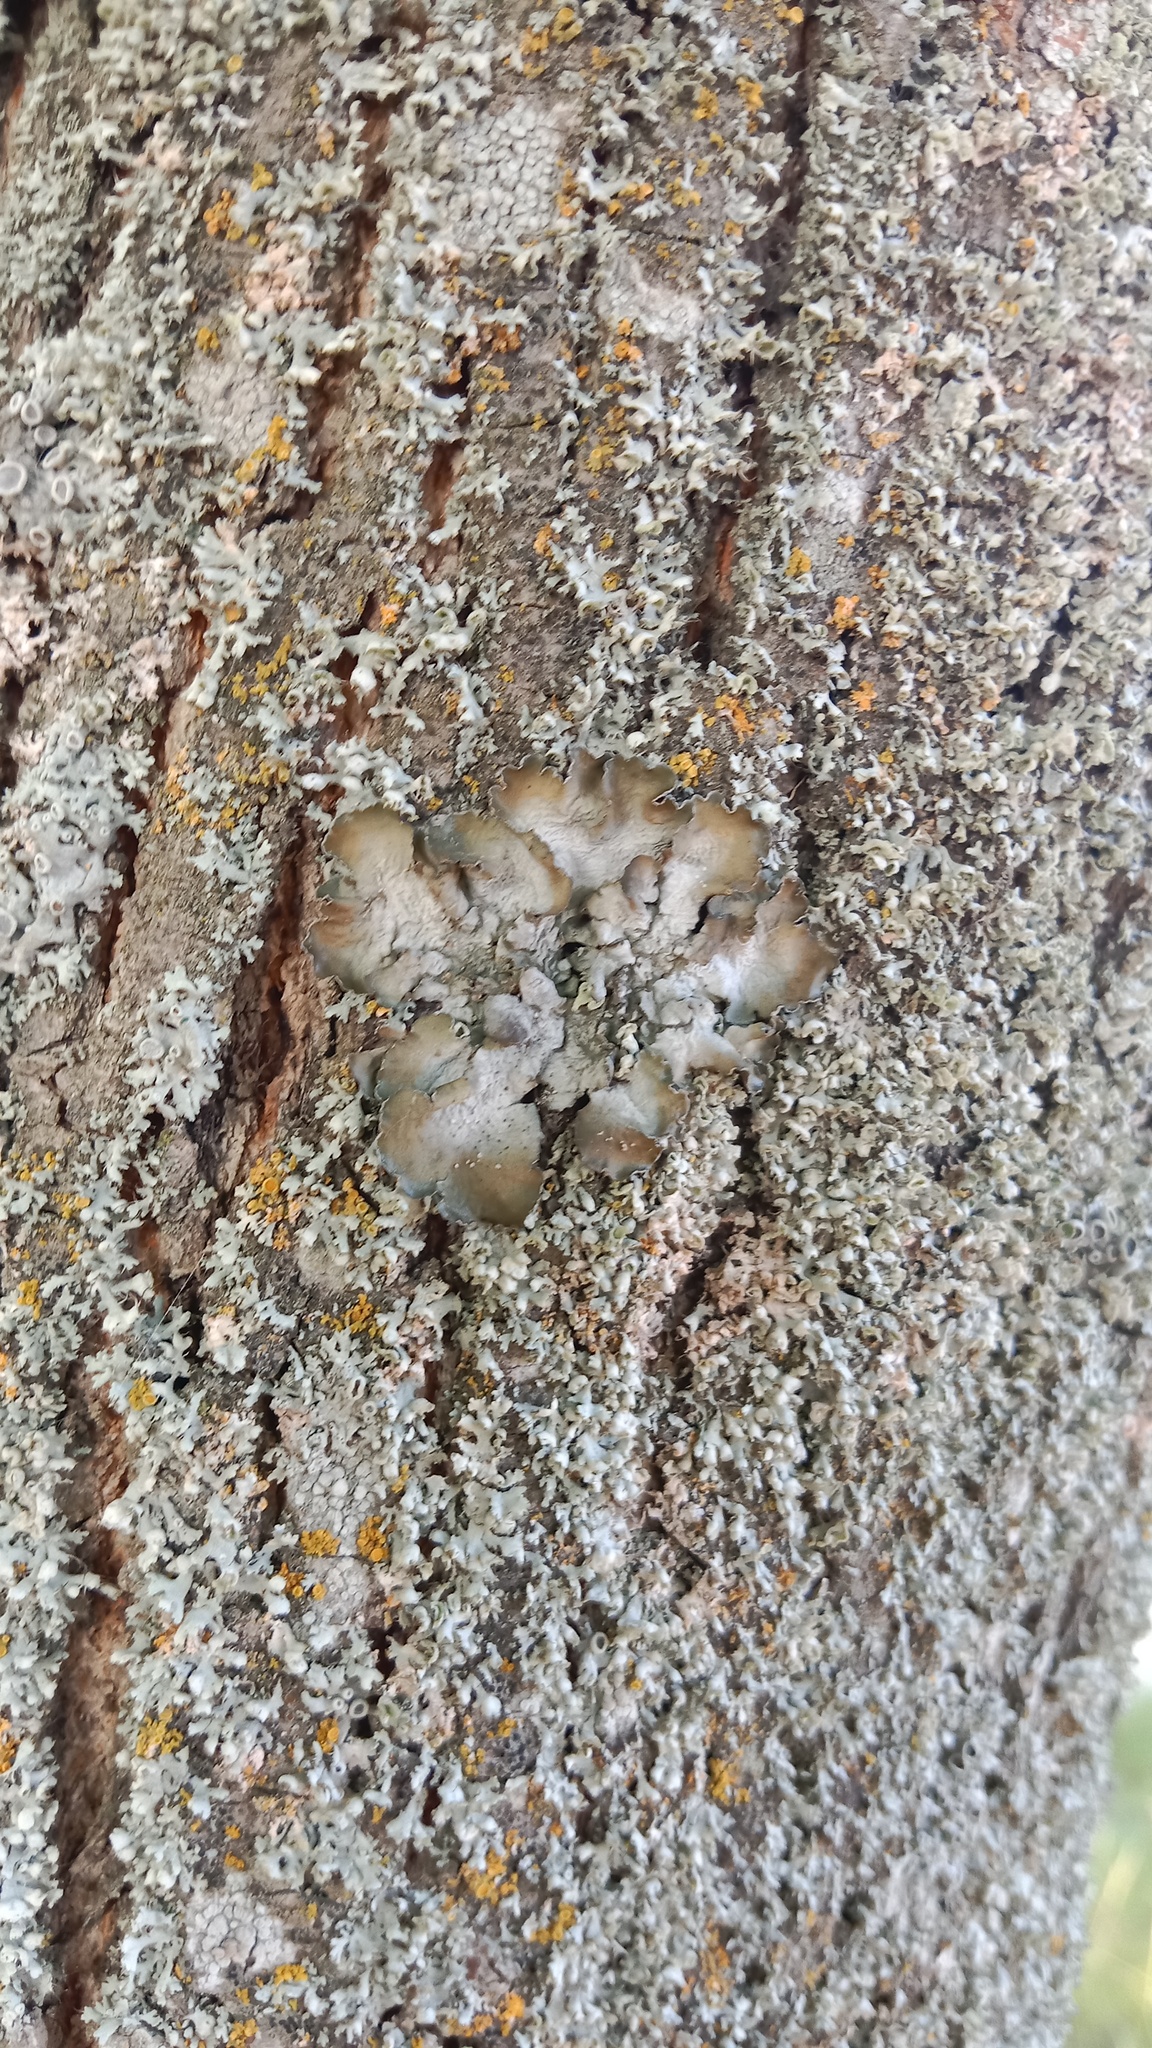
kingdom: Fungi
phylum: Ascomycota
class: Lecanoromycetes
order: Lecanorales
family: Parmeliaceae
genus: Pleurosticta
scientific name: Pleurosticta acetabulum
